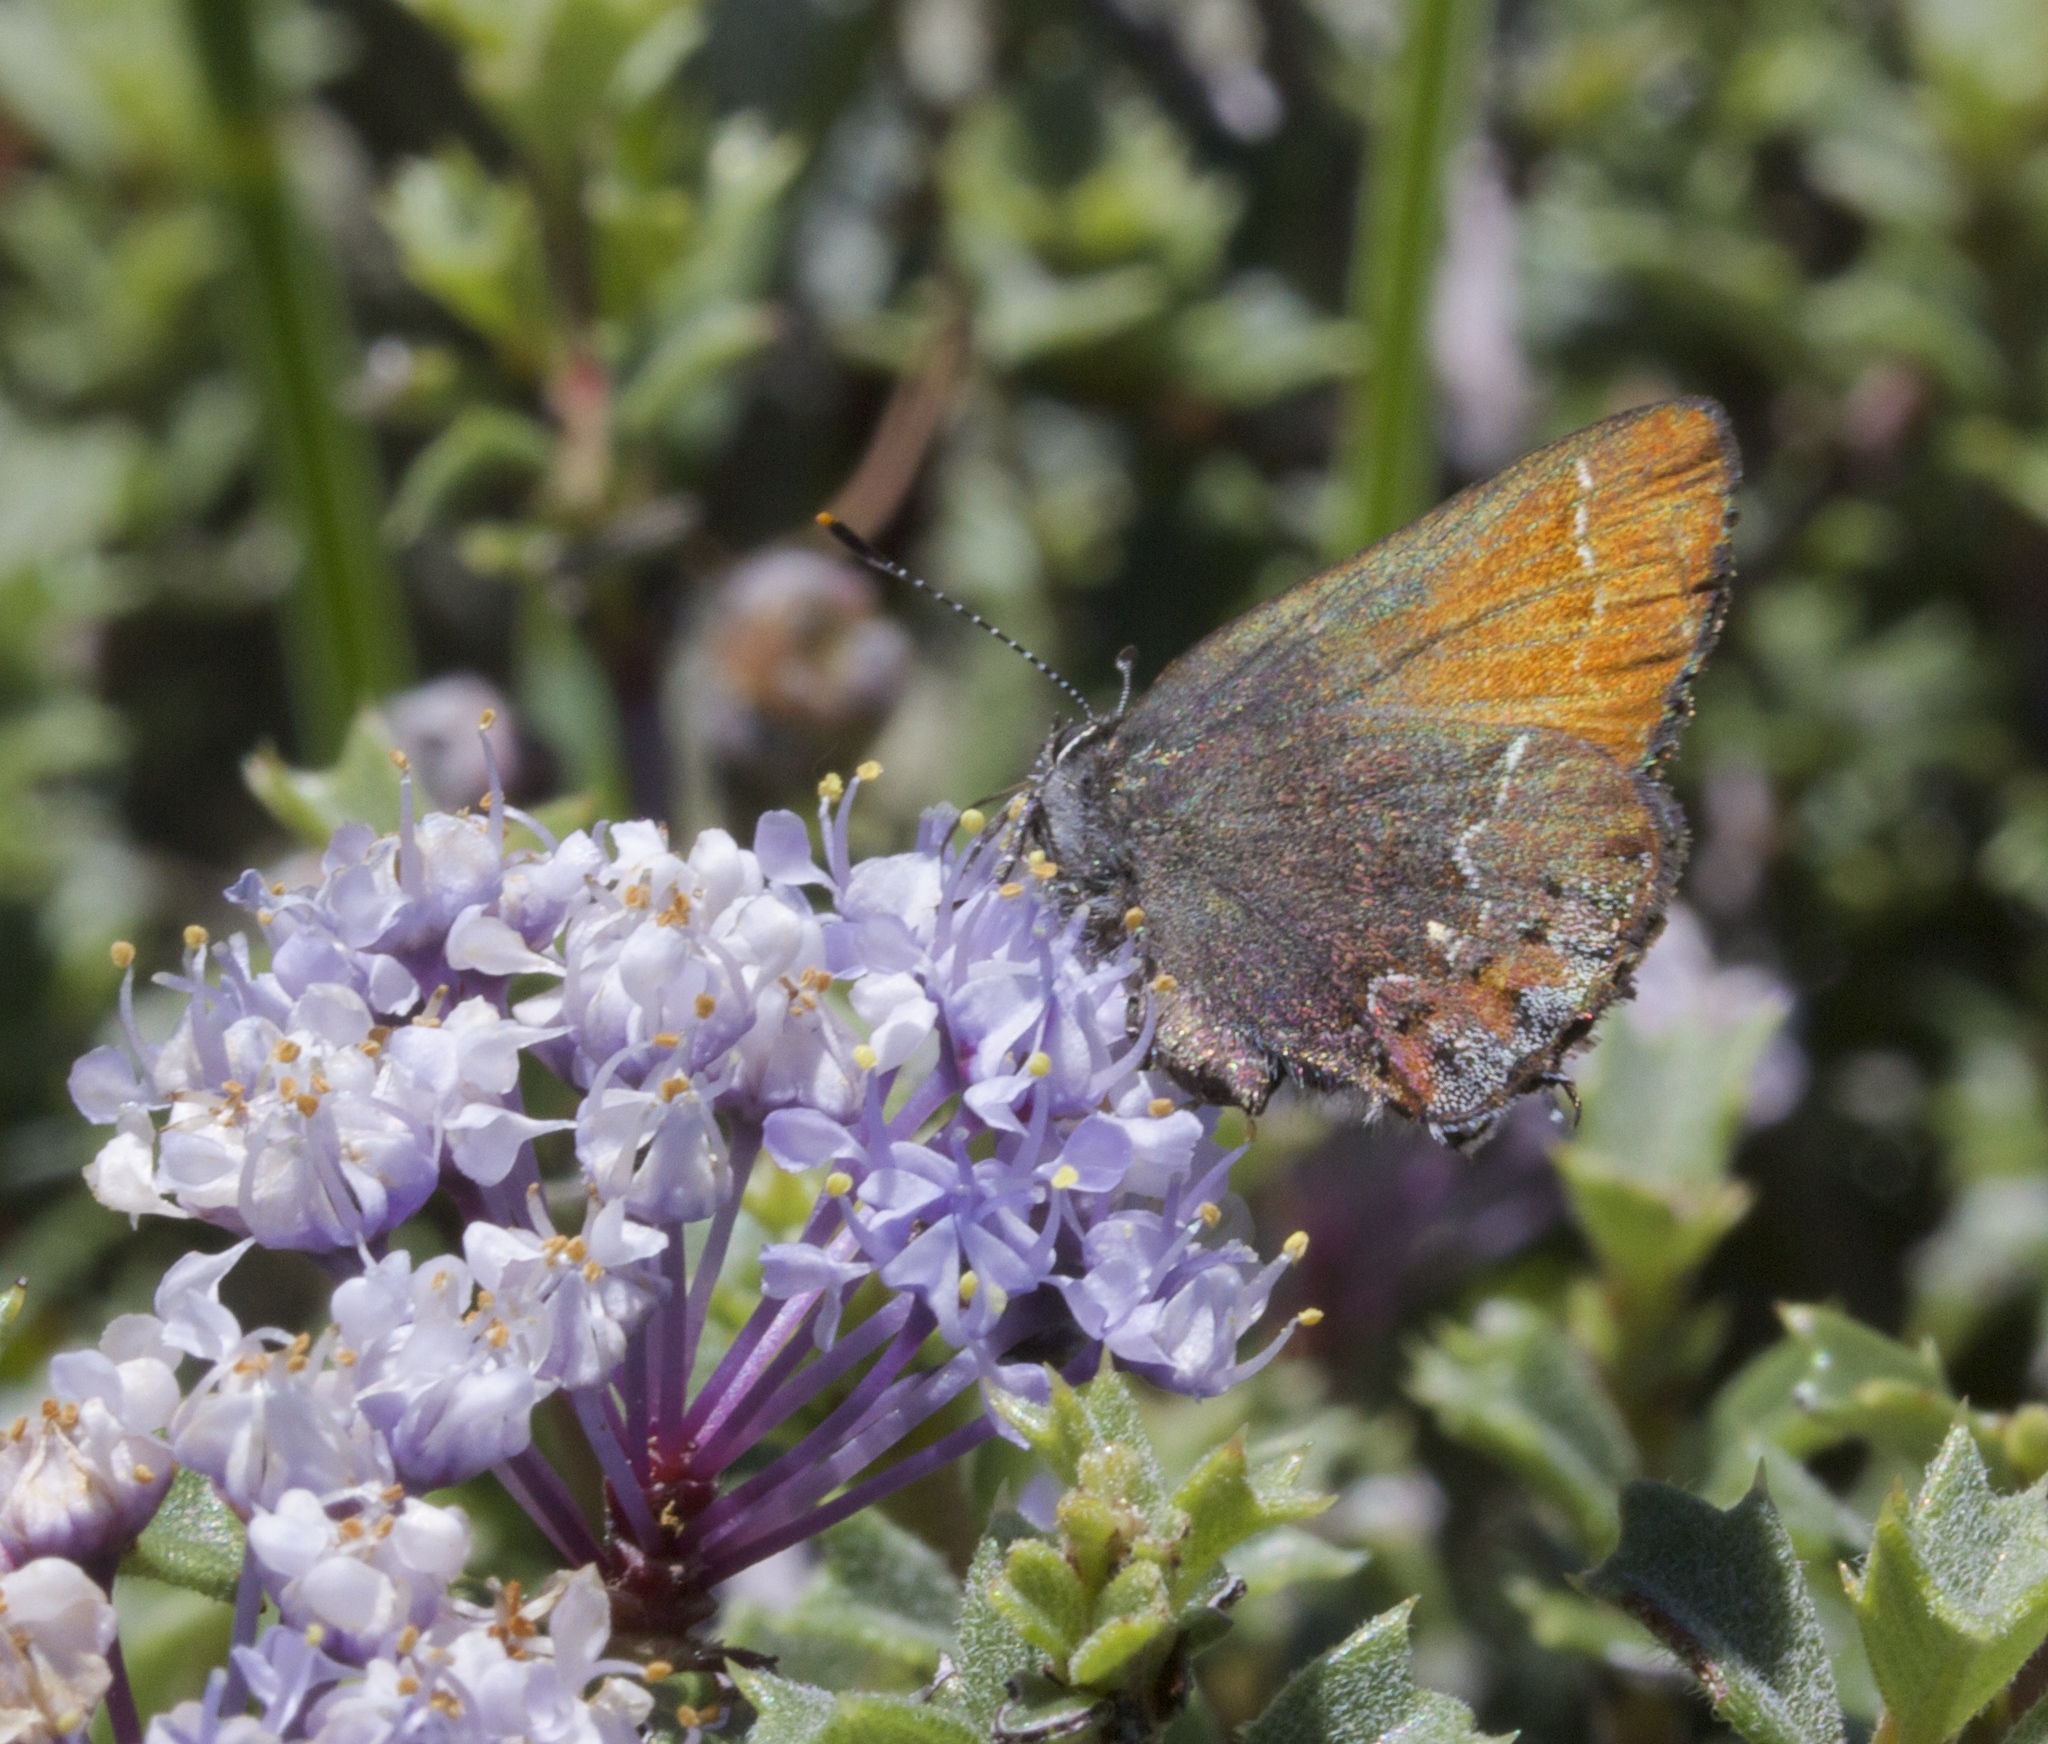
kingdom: Animalia
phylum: Arthropoda
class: Insecta
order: Lepidoptera
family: Lycaenidae
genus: Callophrys
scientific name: Callophrys muiri
